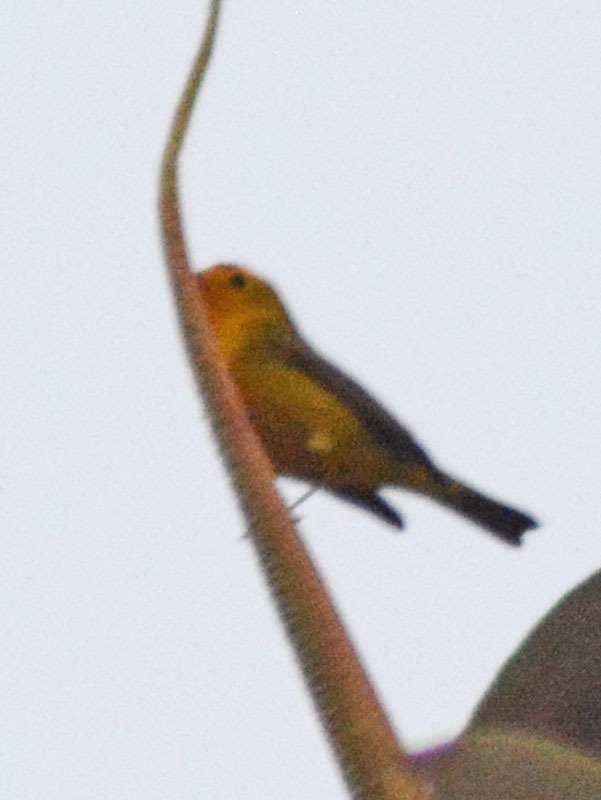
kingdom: Animalia
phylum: Chordata
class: Aves
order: Passeriformes
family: Parulidae
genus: Cardellina
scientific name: Cardellina pusilla
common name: Wilson's warbler
